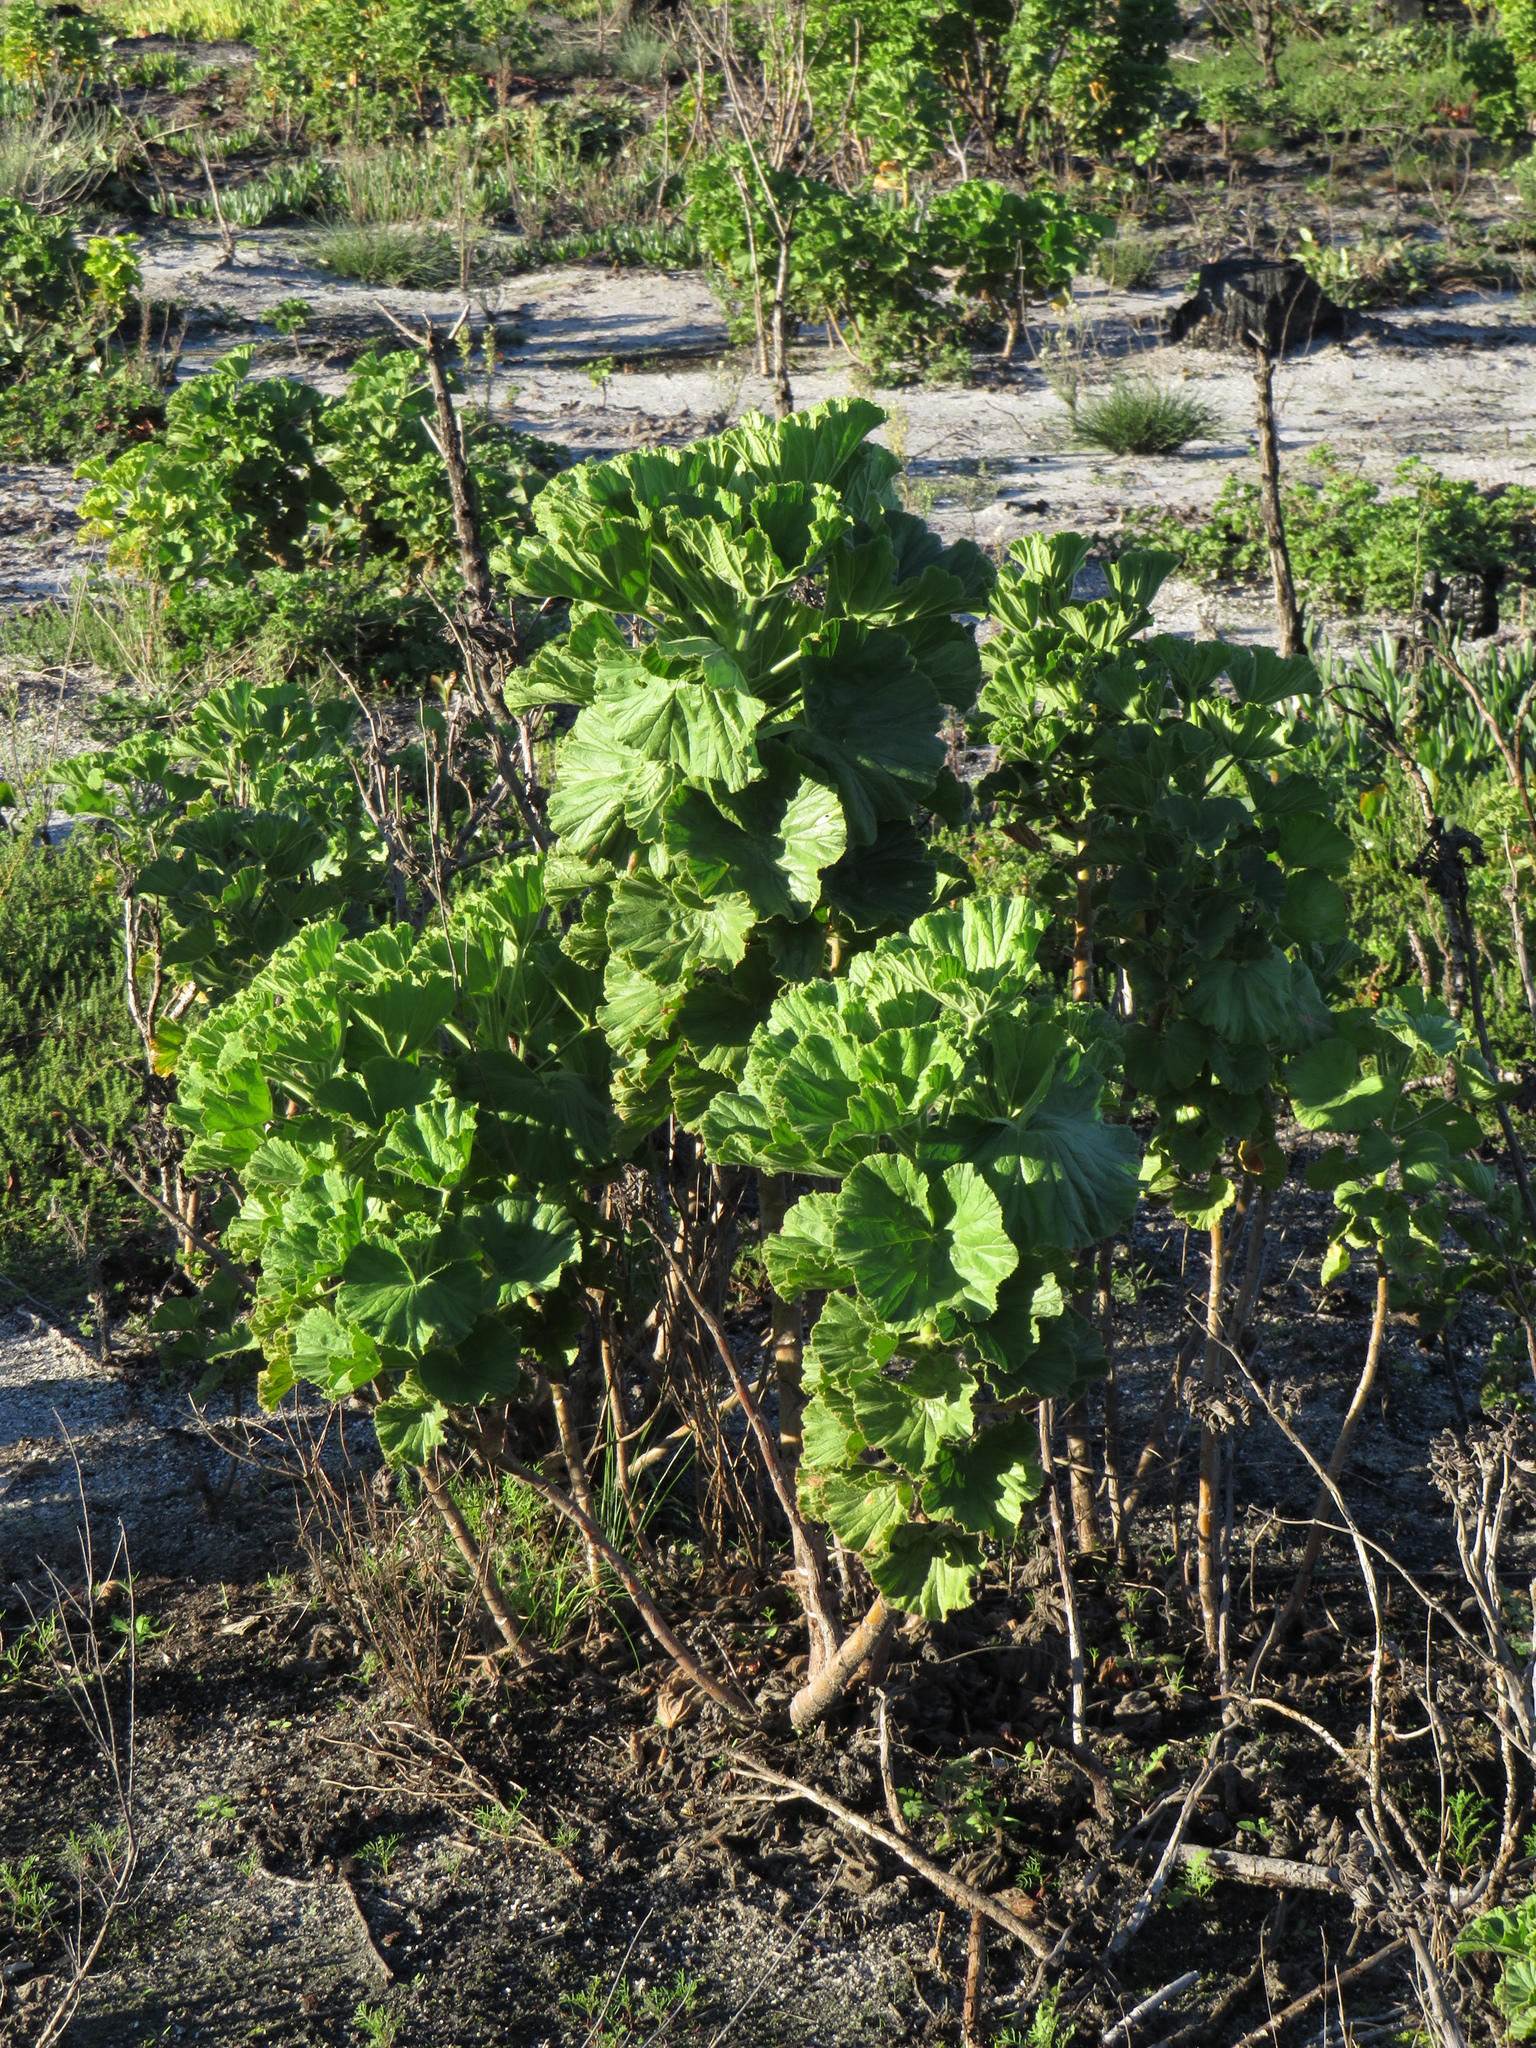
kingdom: Plantae
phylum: Tracheophyta
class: Magnoliopsida
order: Geraniales
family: Geraniaceae
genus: Pelargonium
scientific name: Pelargonium cucullatum
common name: Tree pelargonium
